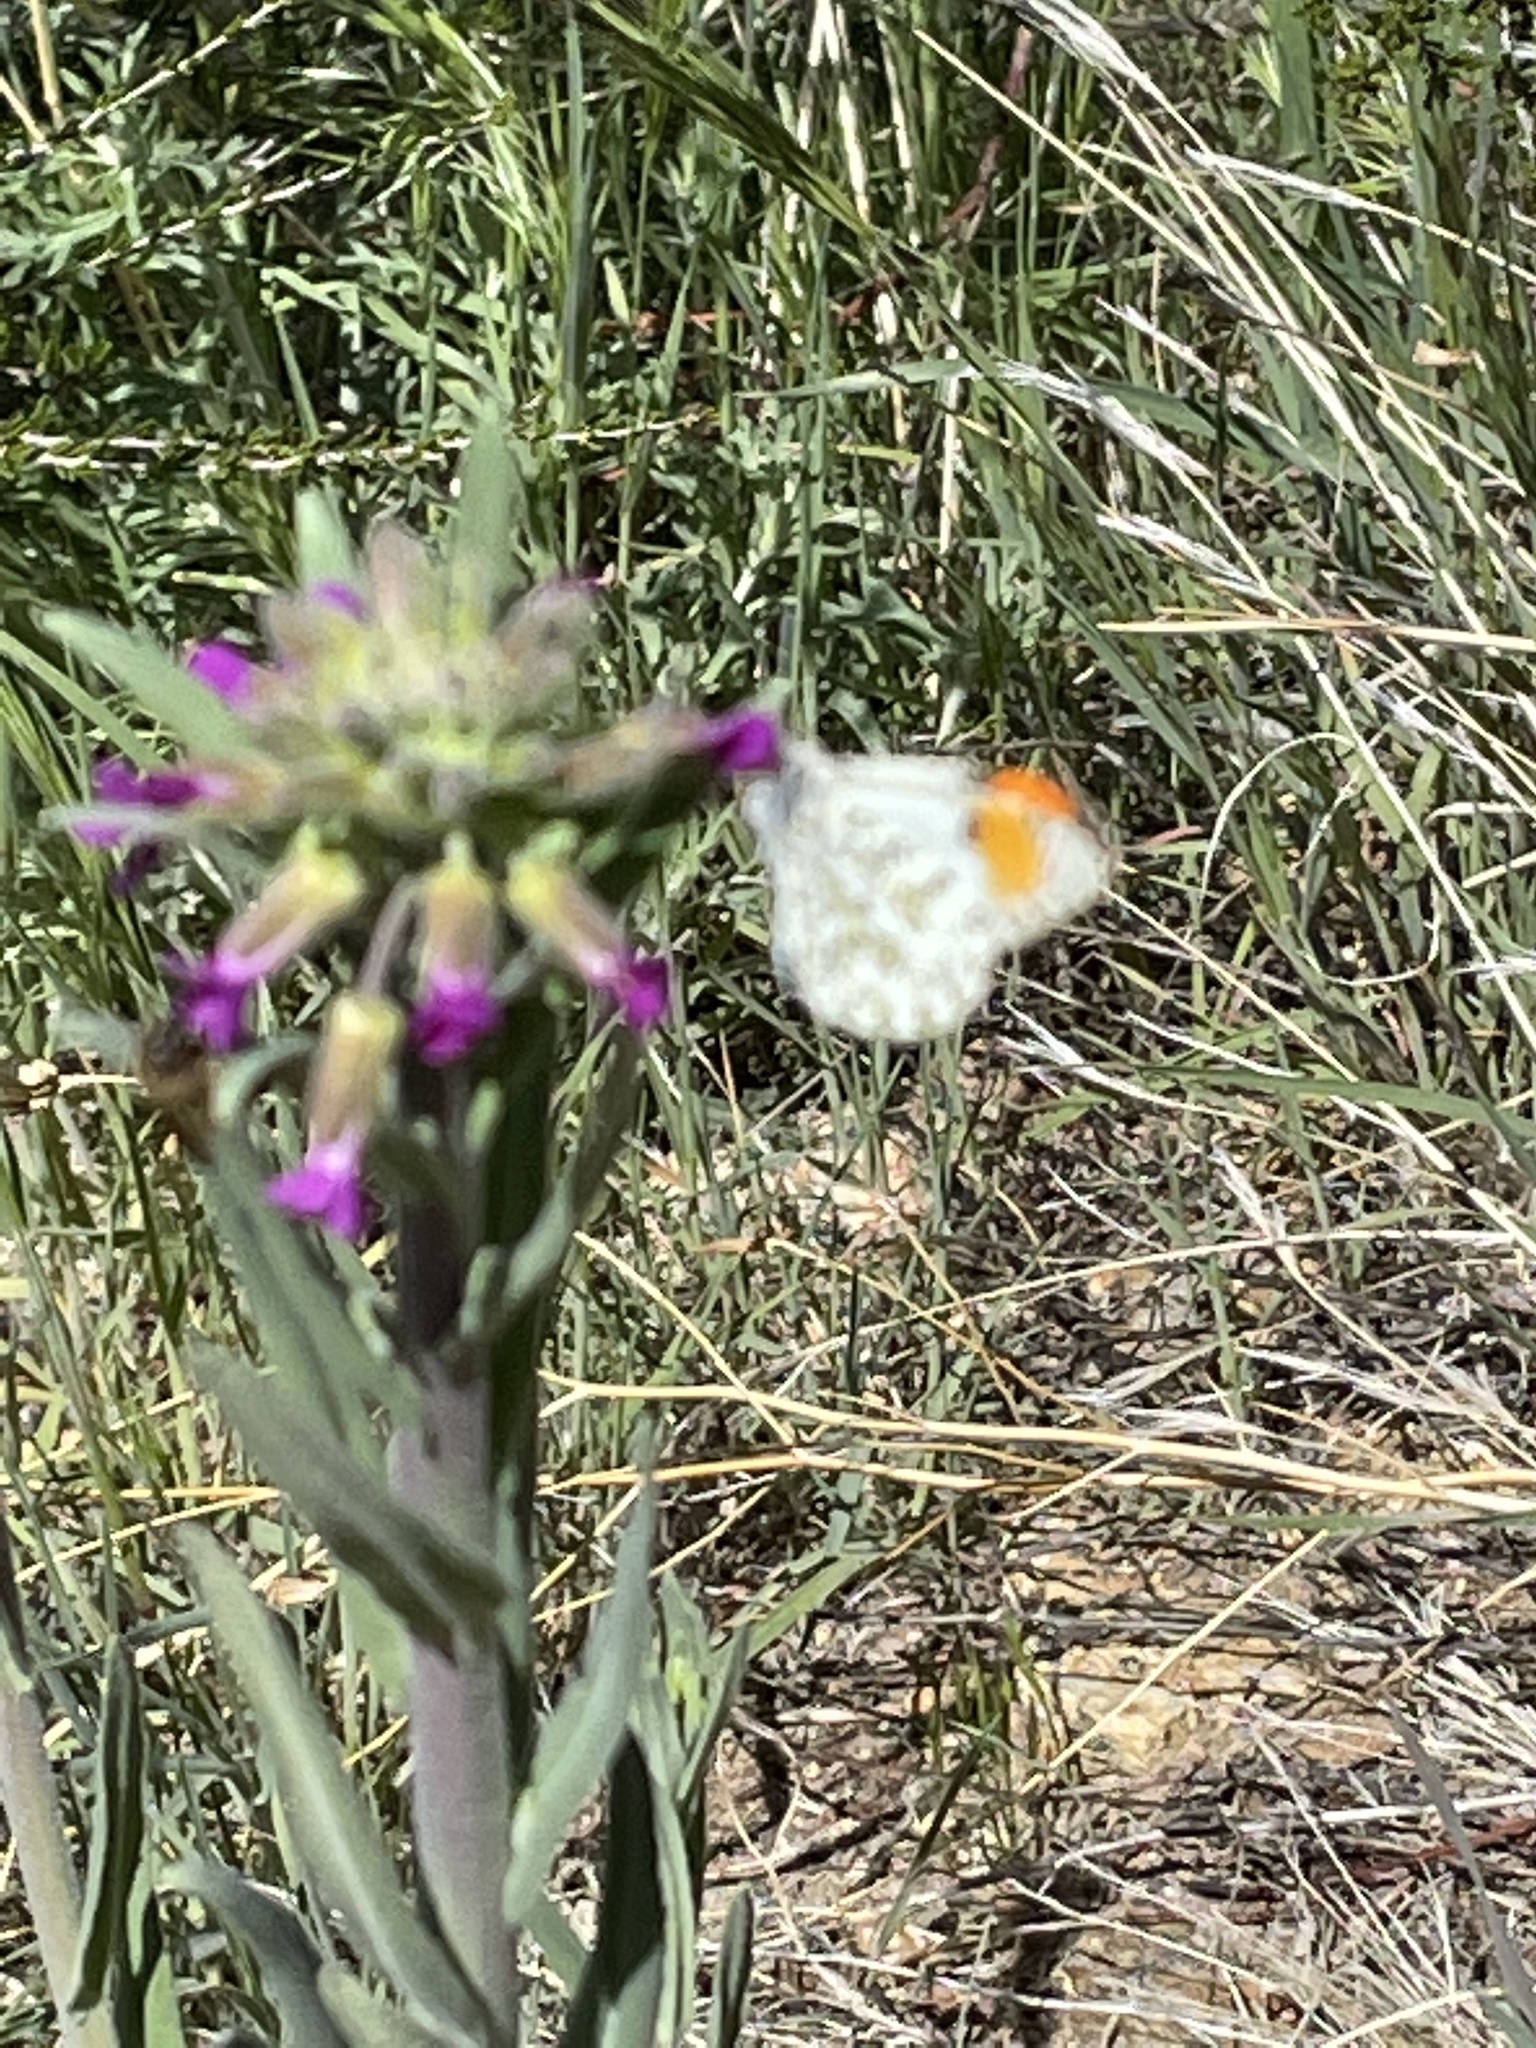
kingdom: Animalia
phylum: Arthropoda
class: Insecta
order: Lepidoptera
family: Pieridae
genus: Anthocharis
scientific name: Anthocharis sara
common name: Sara's orangetip
